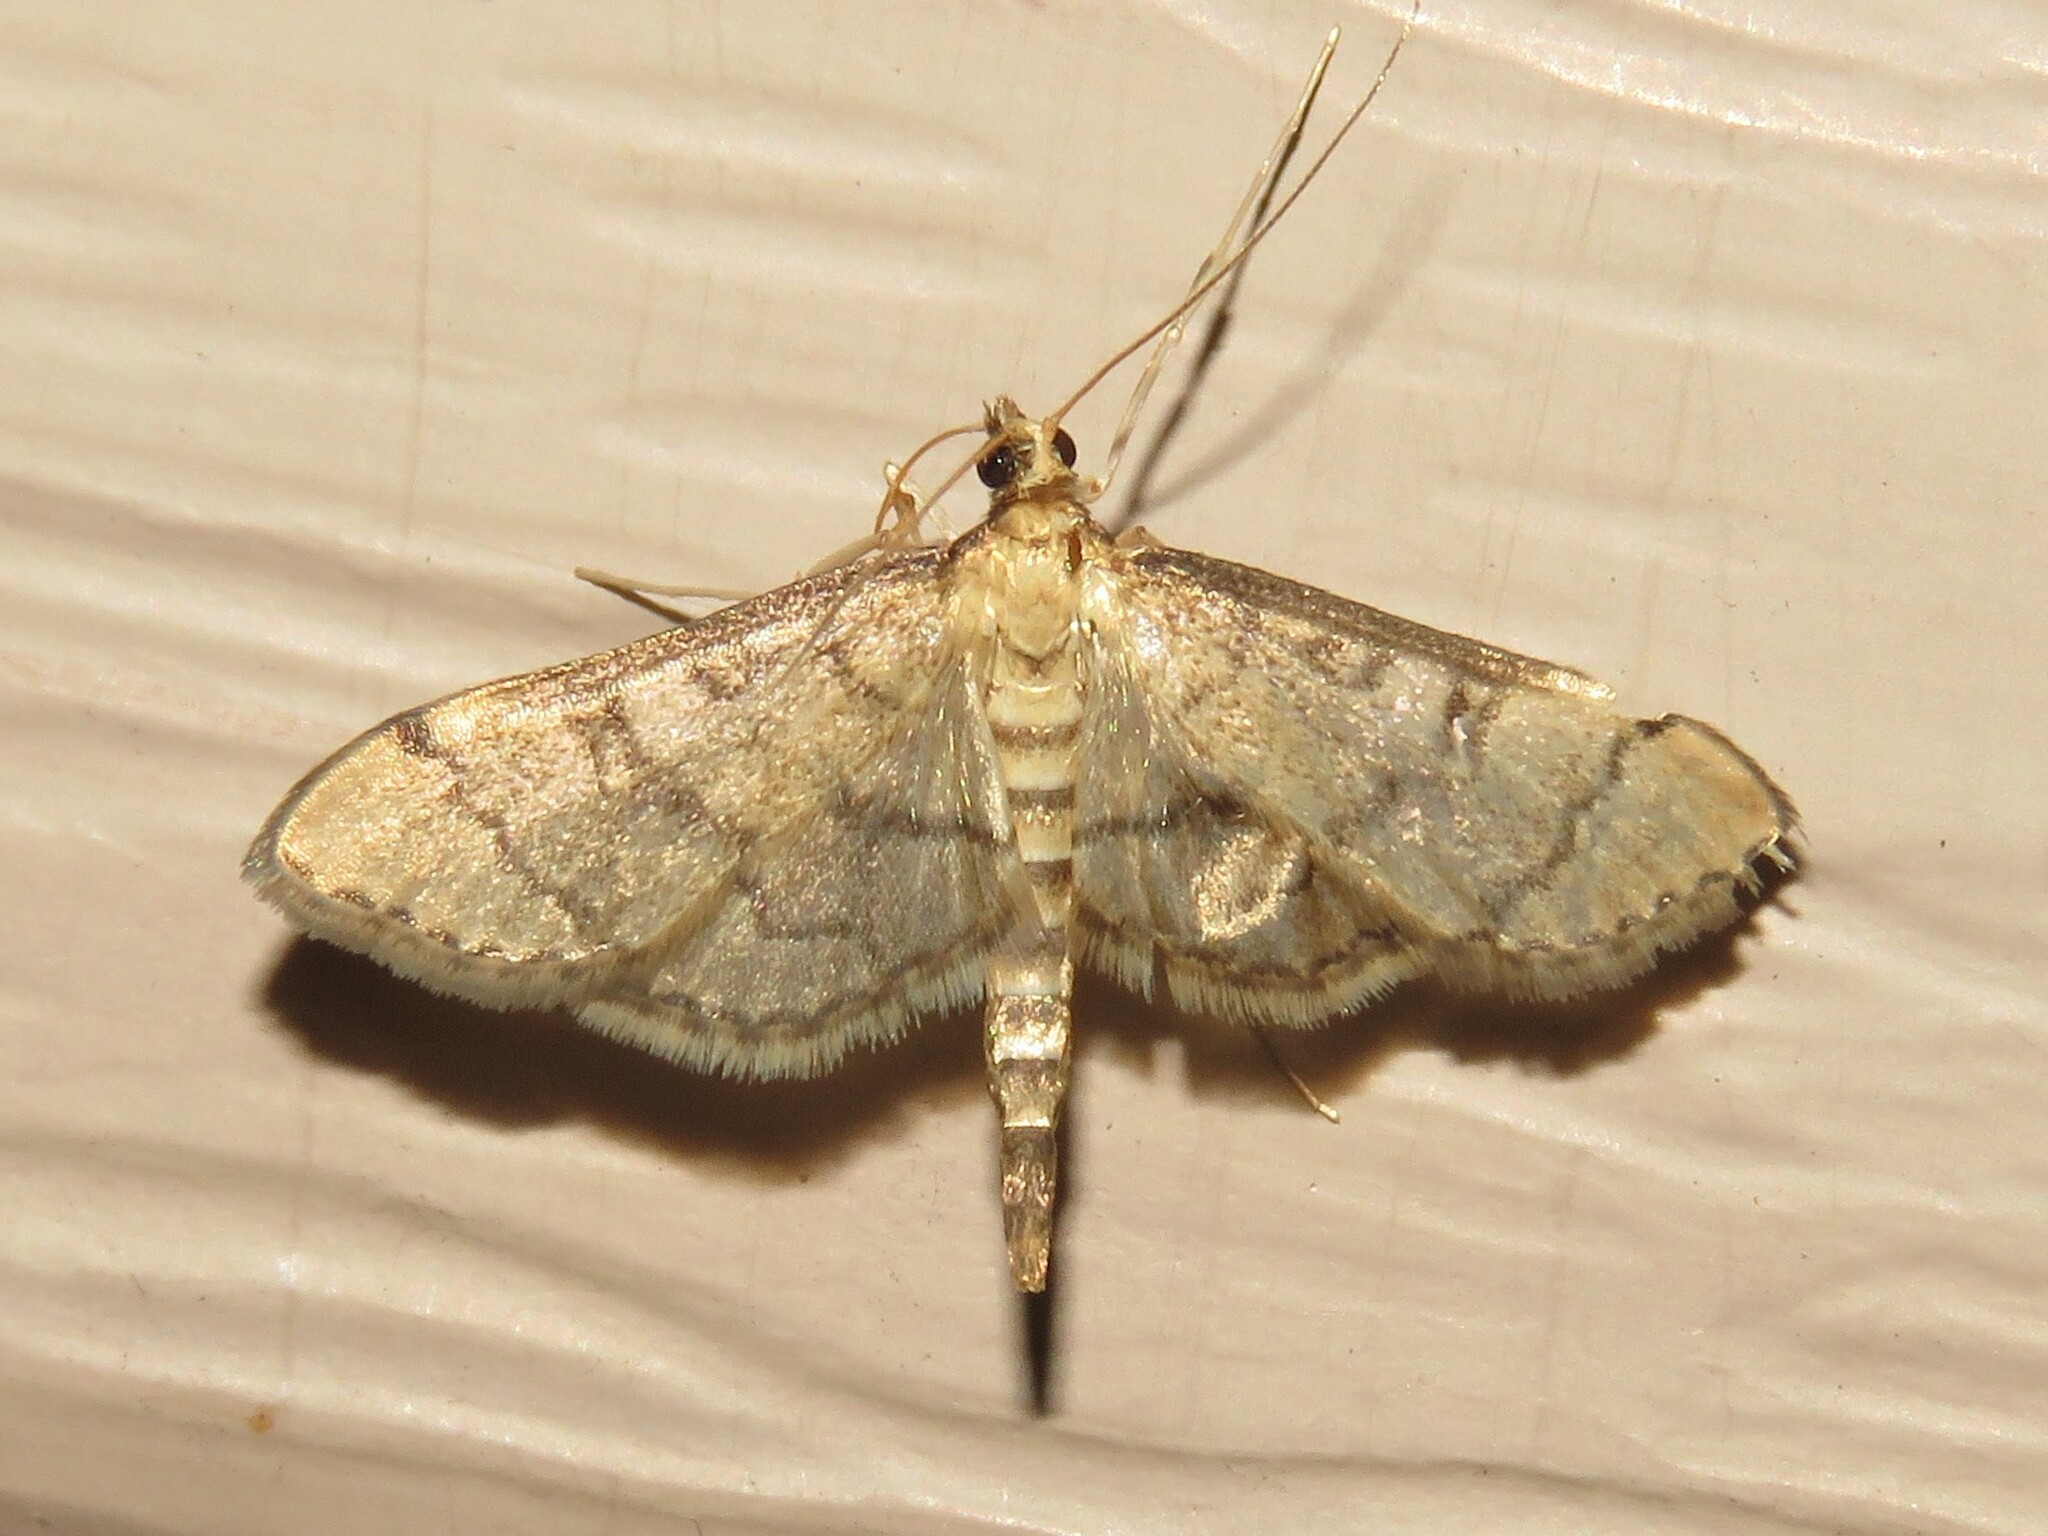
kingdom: Animalia
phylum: Arthropoda
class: Insecta
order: Lepidoptera
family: Crambidae
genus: Lamprosema
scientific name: Lamprosema Blepharomastix ranalis
